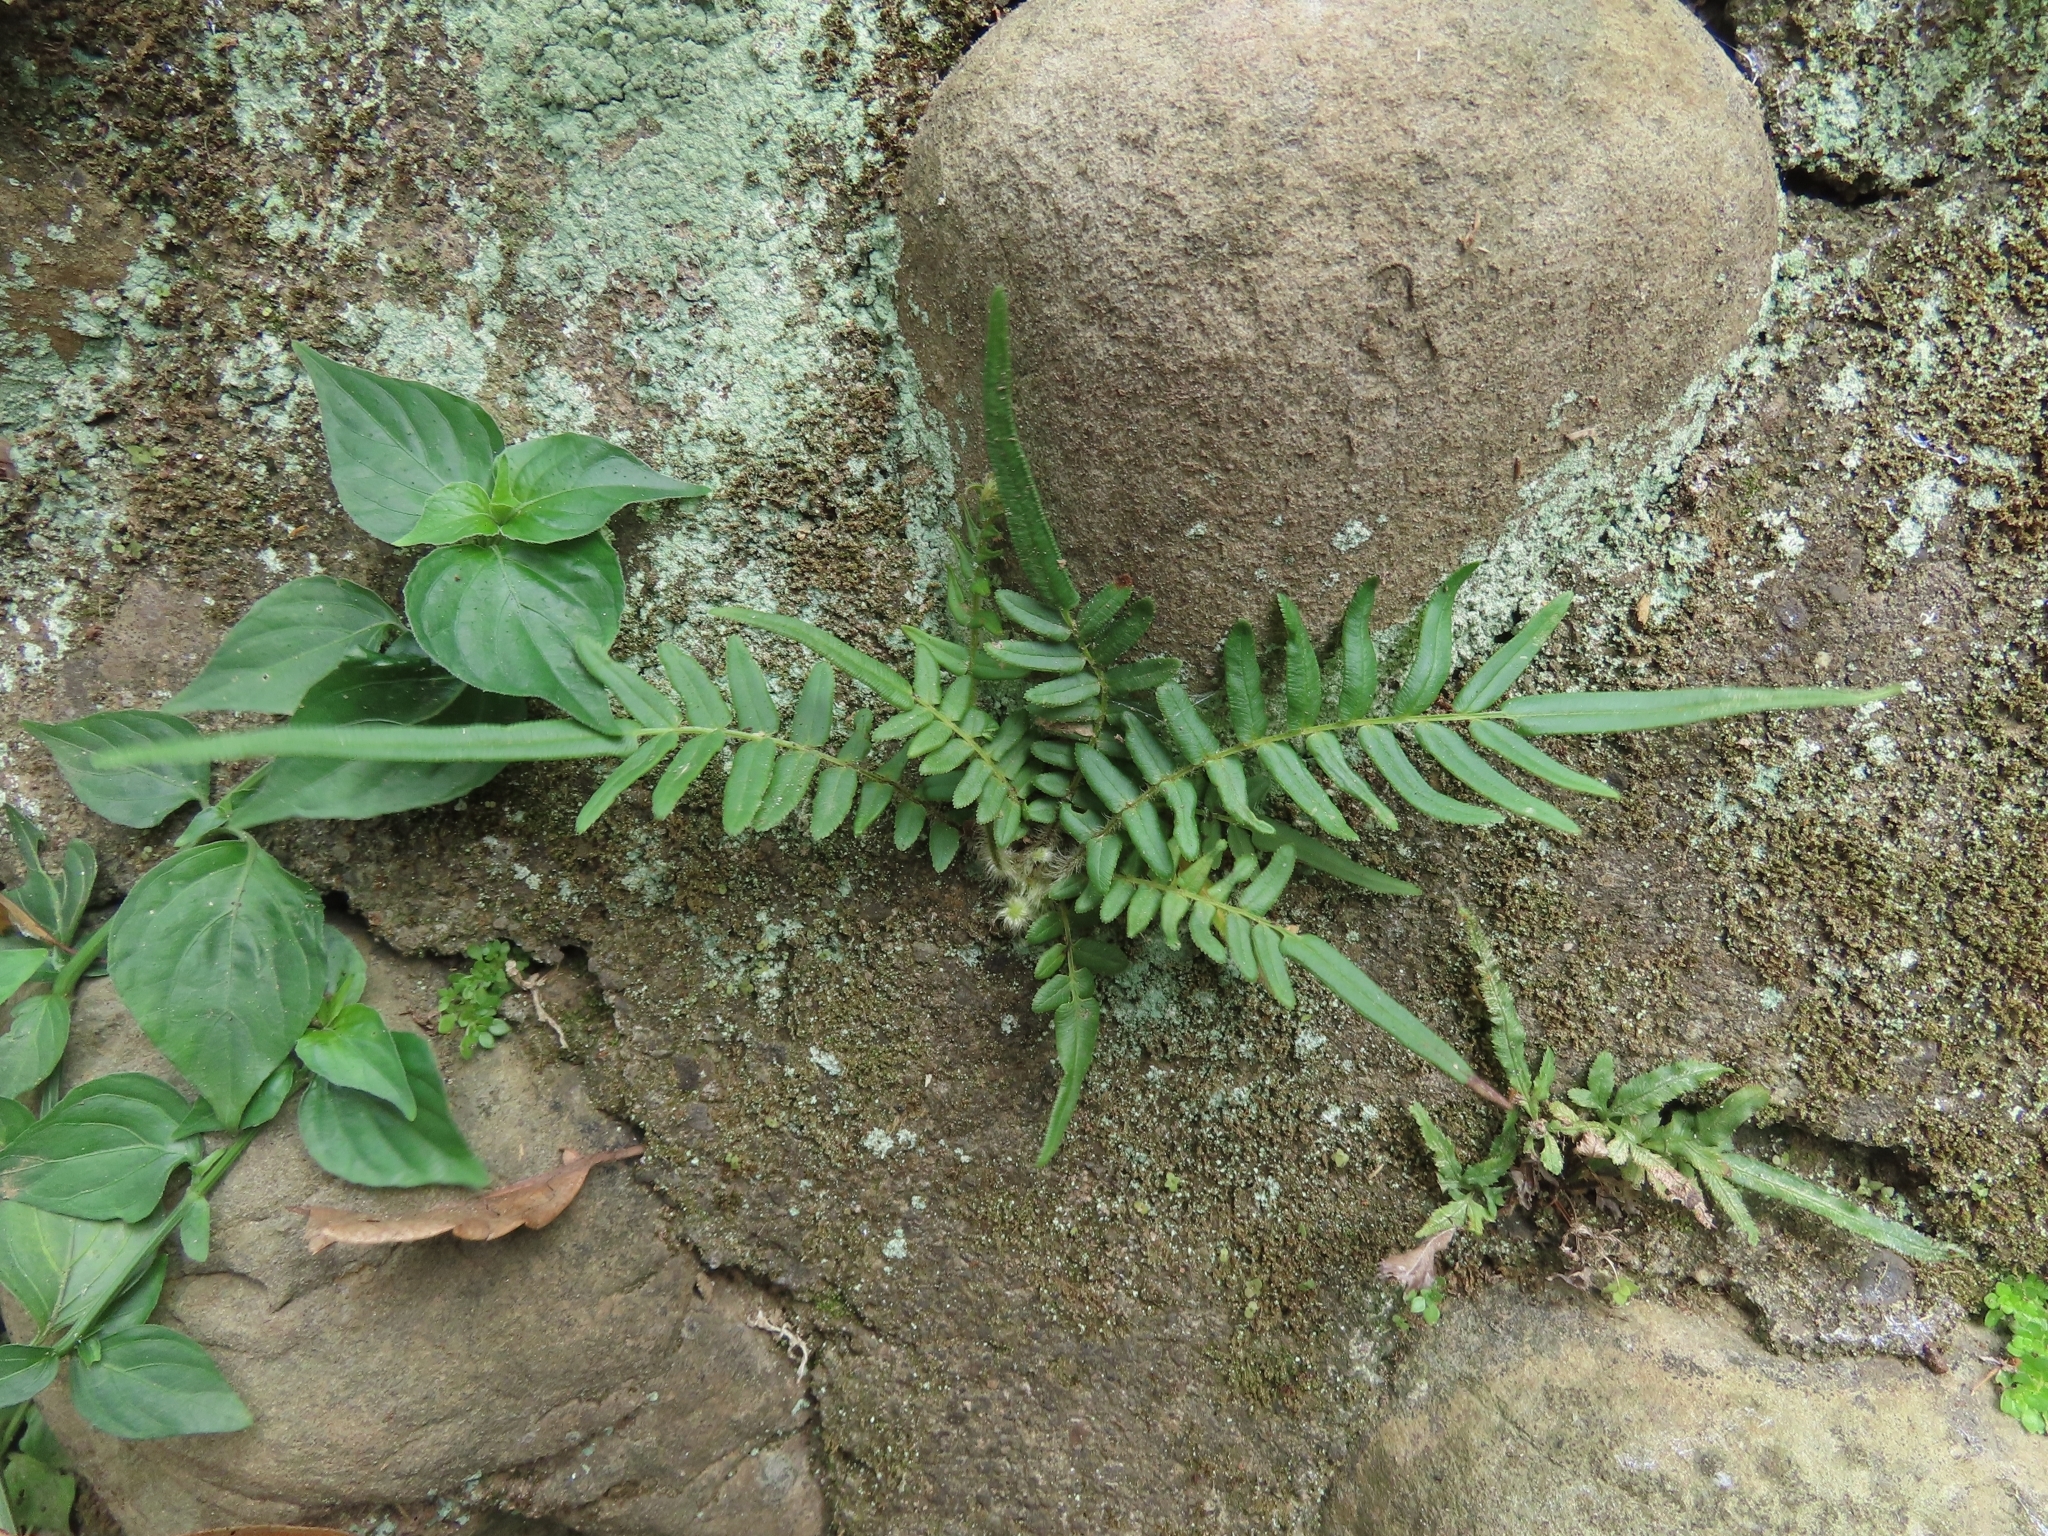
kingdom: Plantae
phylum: Tracheophyta
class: Polypodiopsida
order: Polypodiales
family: Pteridaceae
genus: Pteris
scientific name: Pteris vittata
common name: Ladder brake
